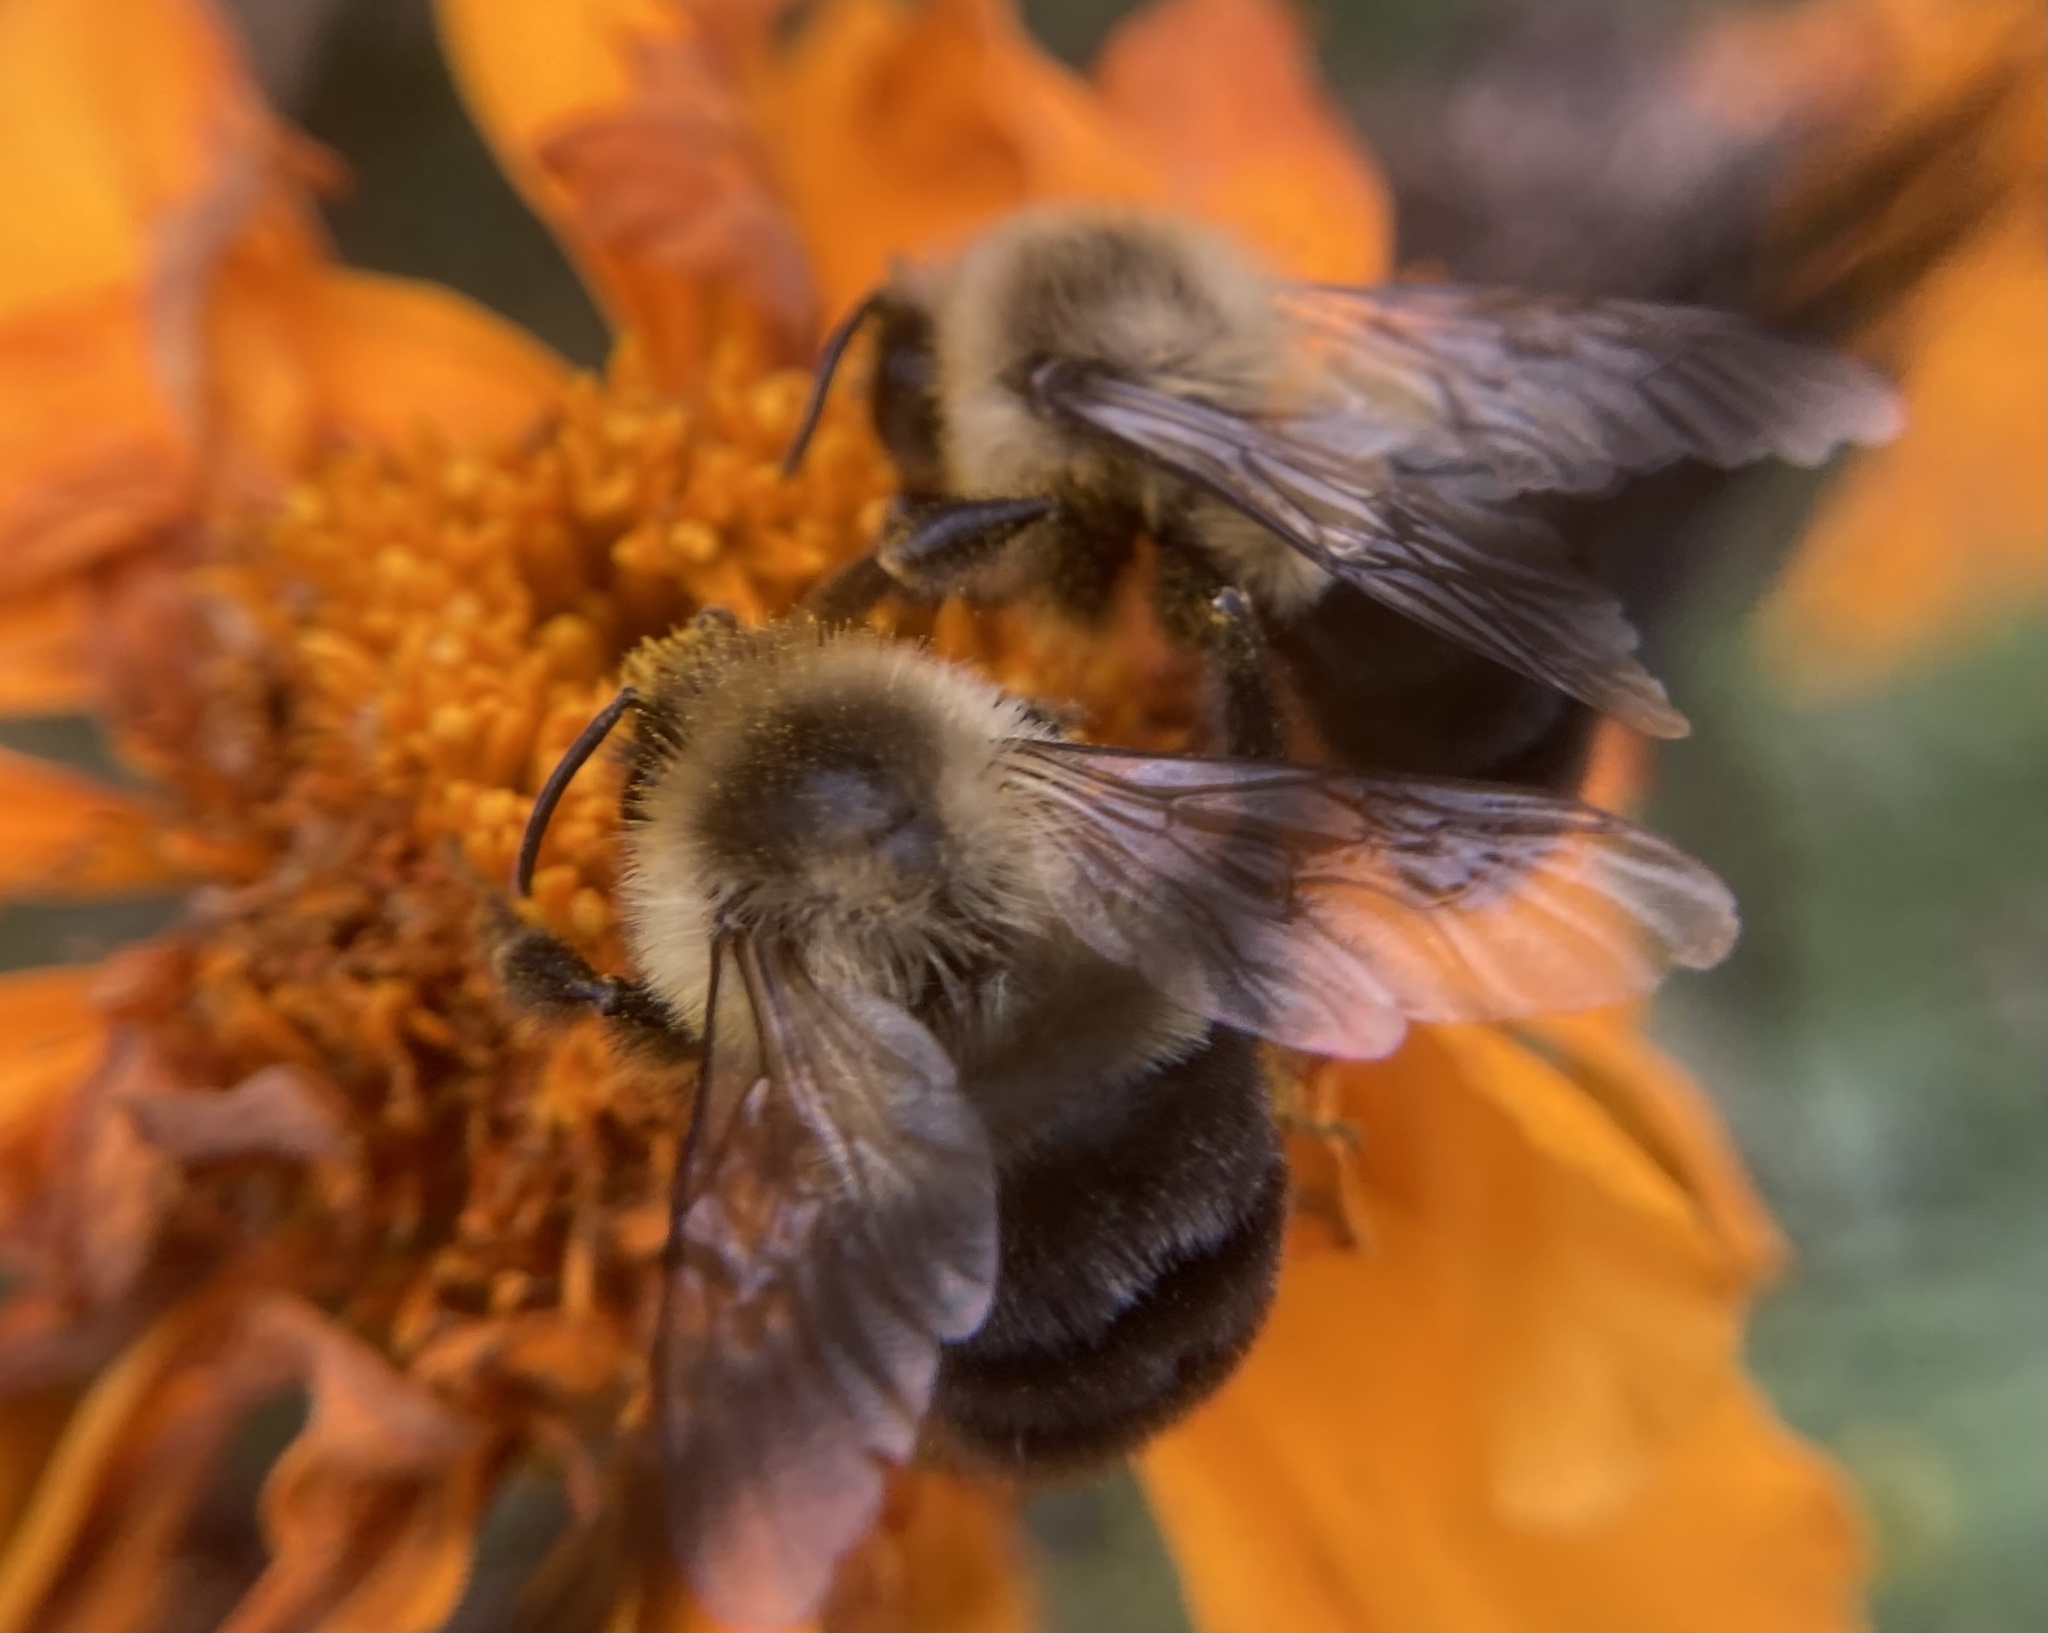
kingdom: Animalia
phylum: Arthropoda
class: Insecta
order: Hymenoptera
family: Apidae
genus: Bombus
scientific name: Bombus impatiens
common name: Common eastern bumble bee
